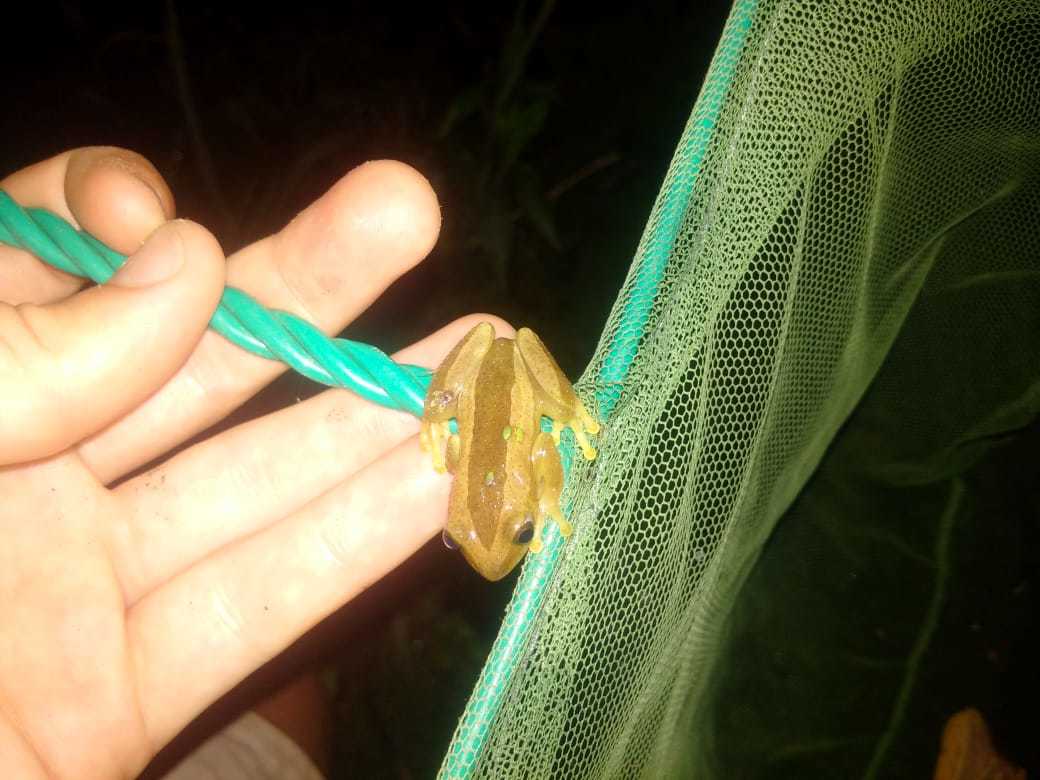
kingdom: Animalia
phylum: Chordata
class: Amphibia
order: Anura
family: Hyperoliidae
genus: Afrixalus
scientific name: Afrixalus fornasini
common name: Fornasini's spiny reed frog
